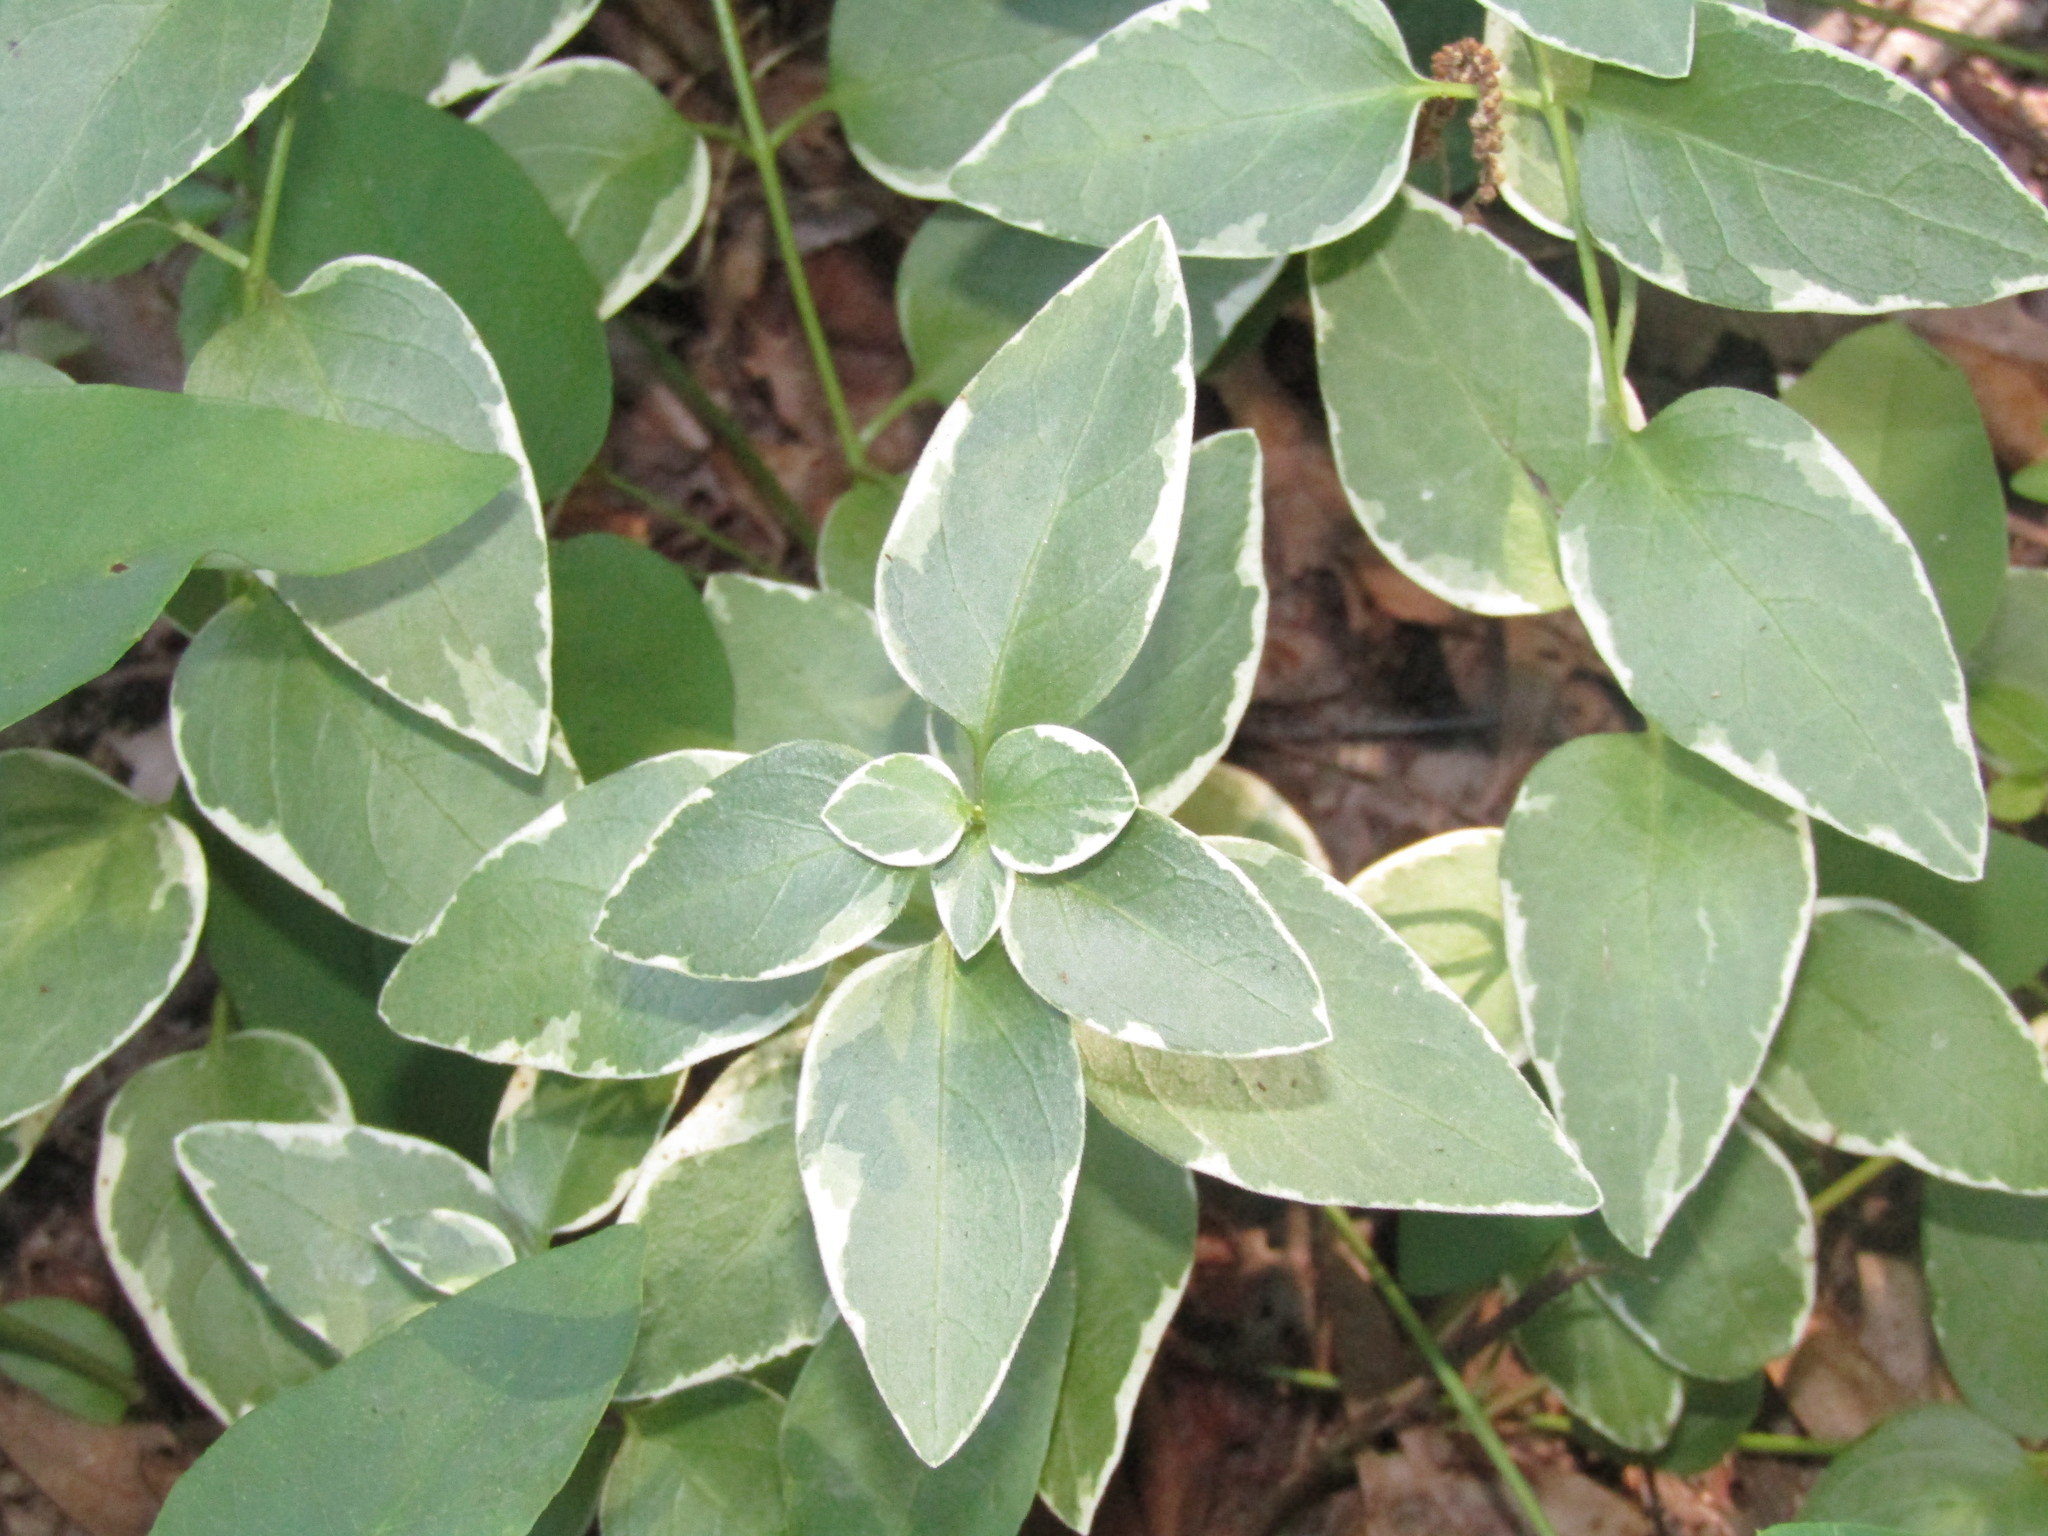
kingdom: Plantae
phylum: Tracheophyta
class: Magnoliopsida
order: Gentianales
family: Apocynaceae
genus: Vinca
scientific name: Vinca major
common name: Greater periwinkle
